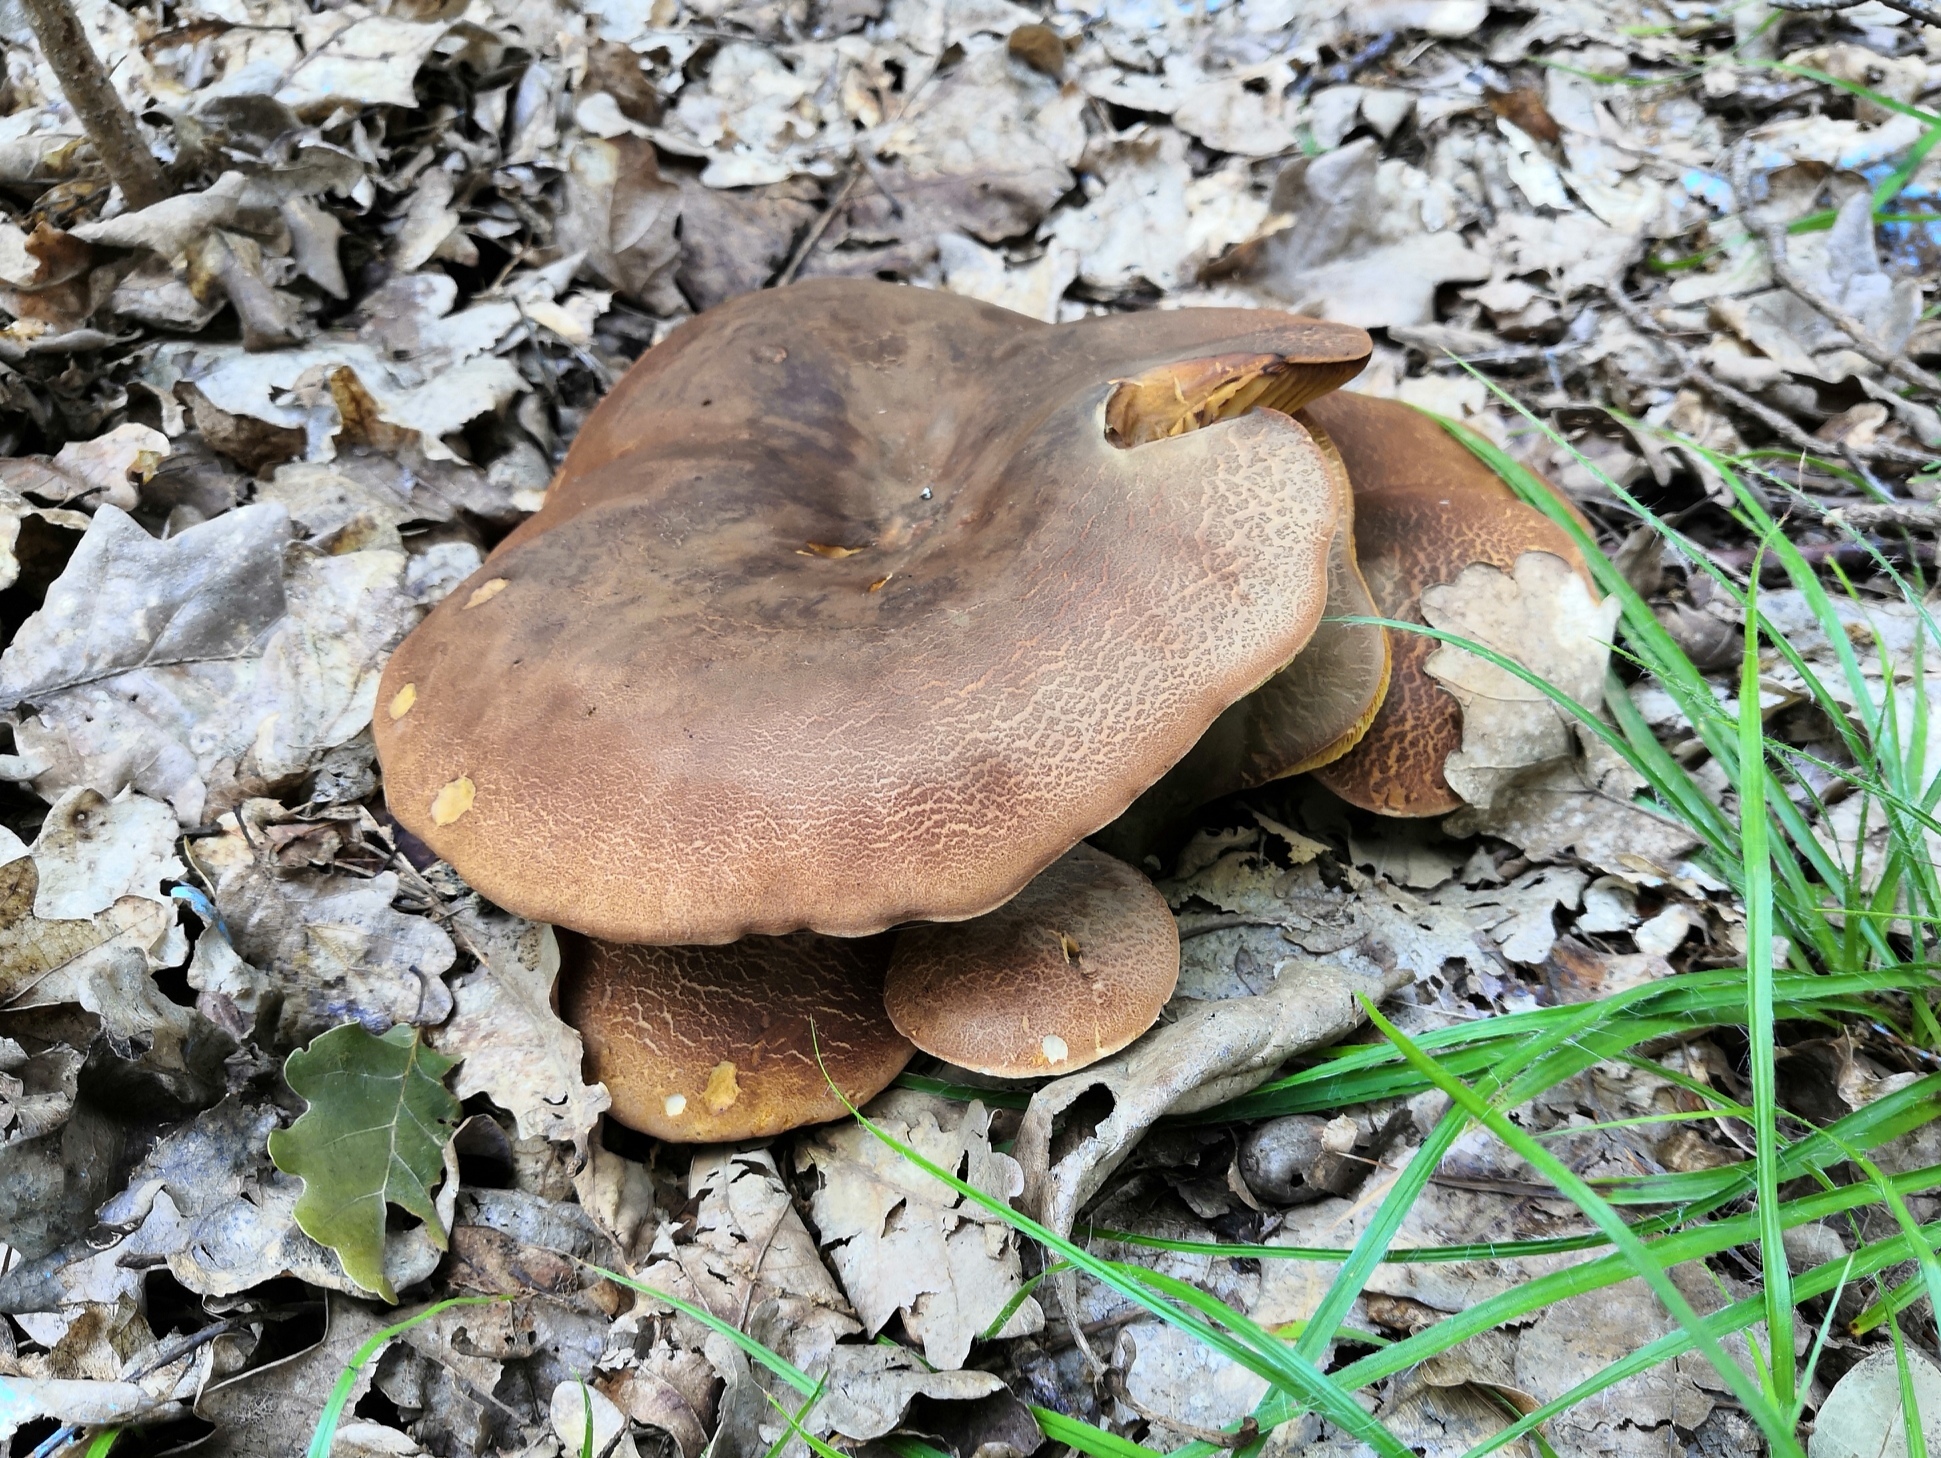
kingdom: Fungi
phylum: Basidiomycota
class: Agaricomycetes
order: Boletales
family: Tapinellaceae
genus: Tapinella
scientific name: Tapinella atrotomentosa
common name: Velvet rollrim
